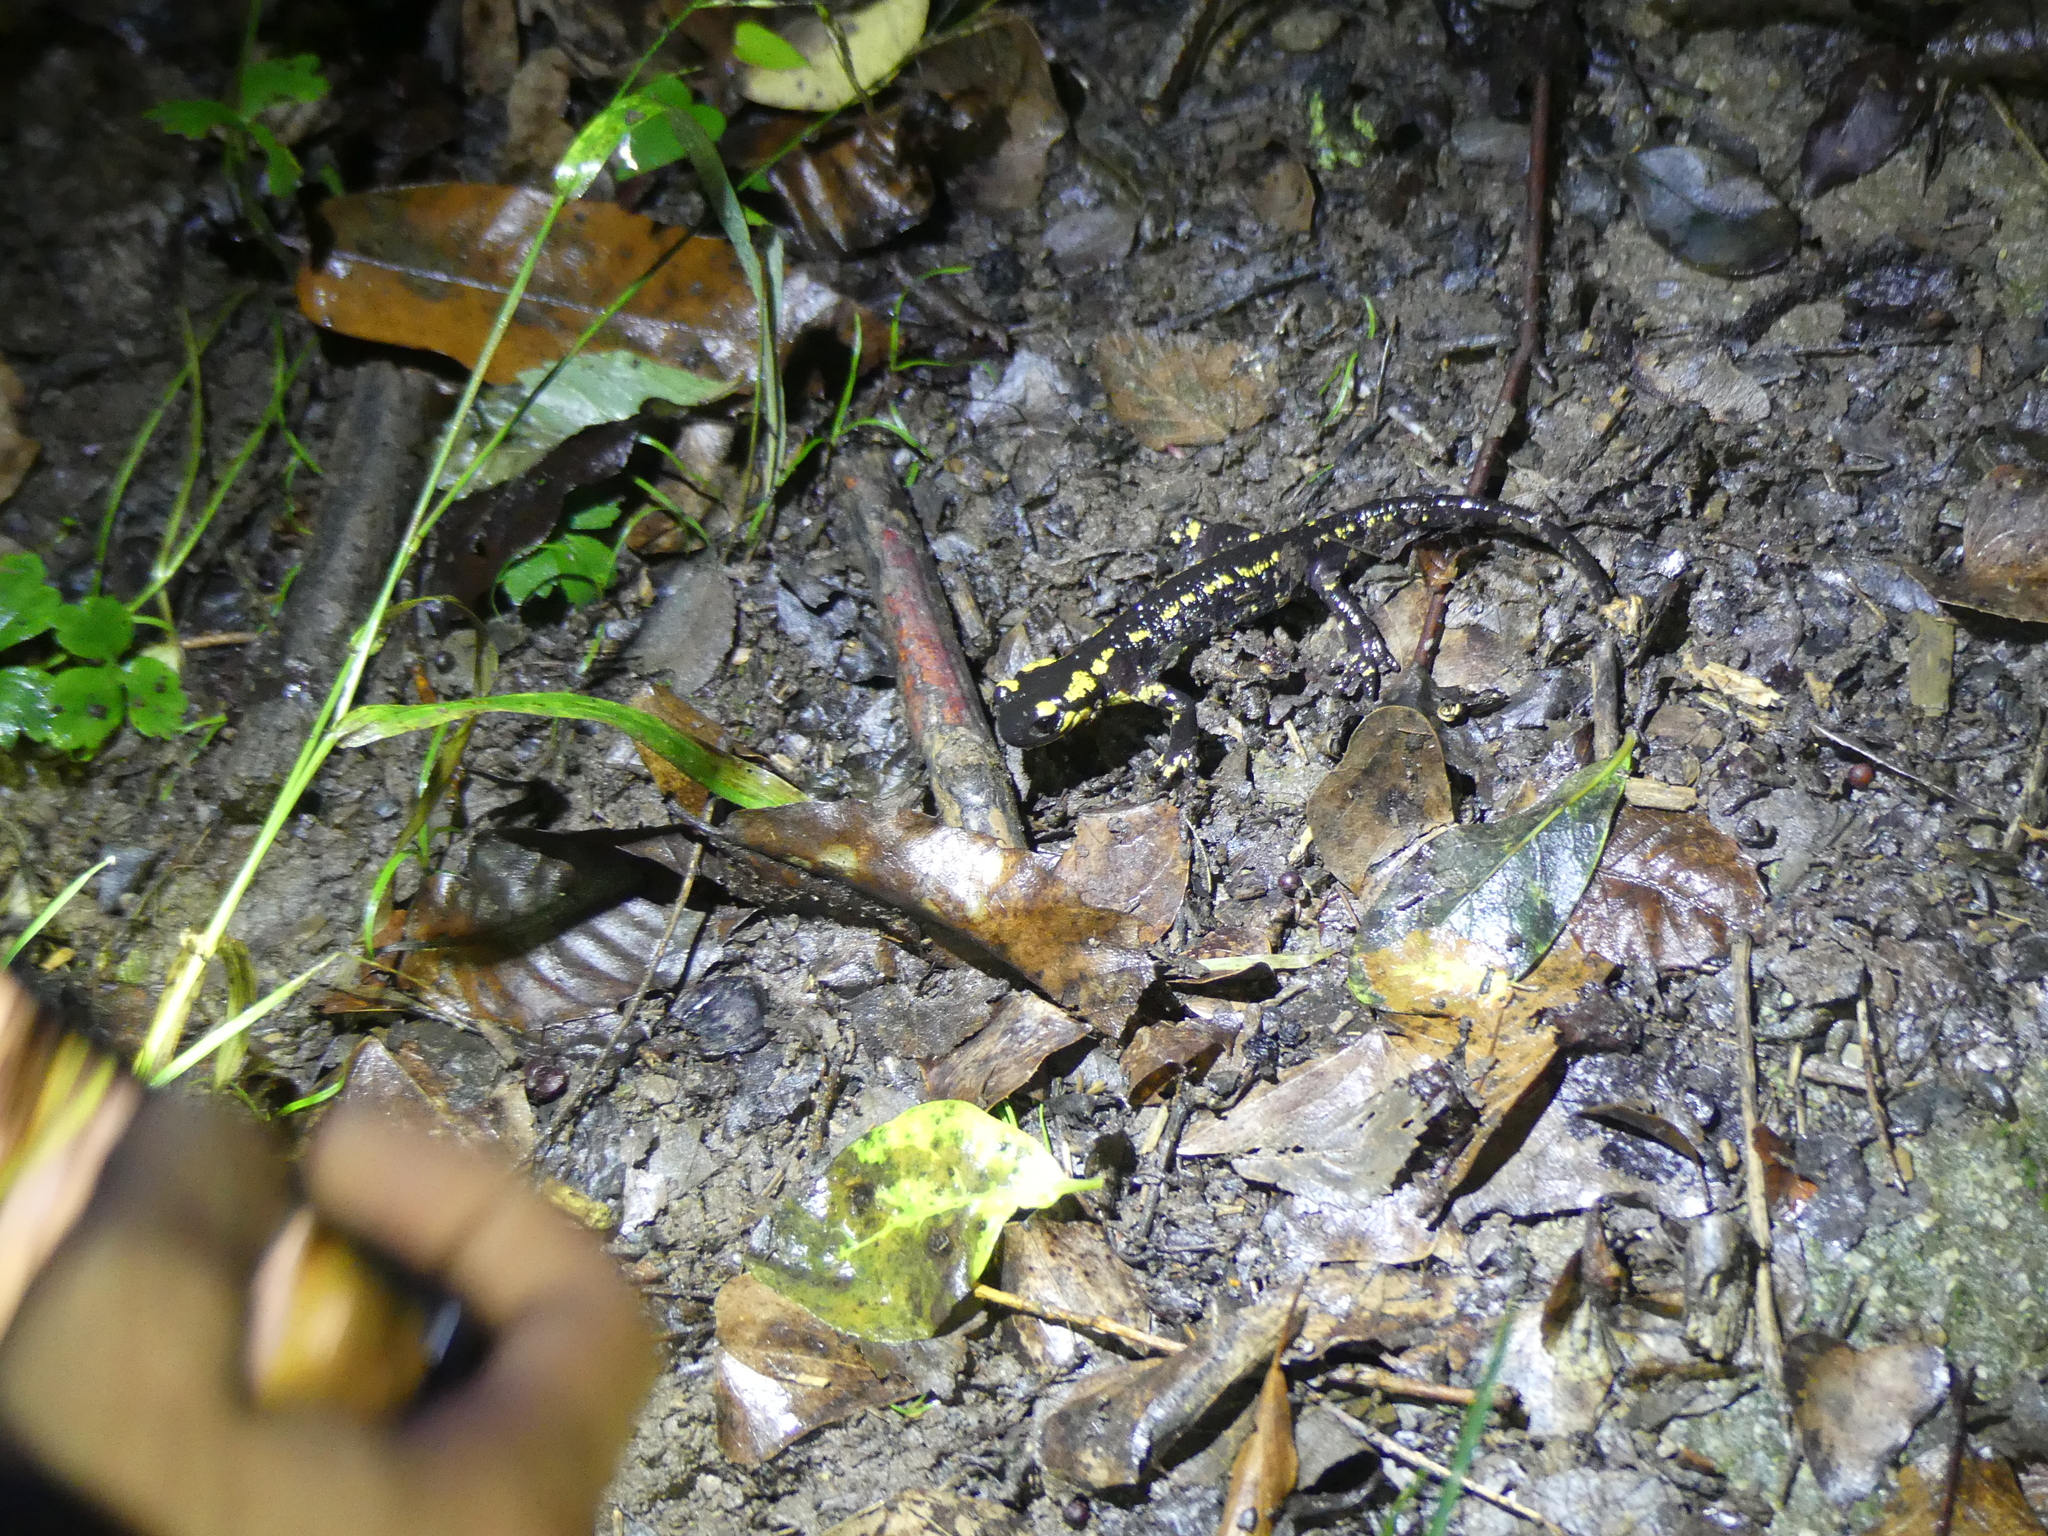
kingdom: Animalia
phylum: Chordata
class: Amphibia
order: Caudata
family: Salamandridae
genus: Salamandra
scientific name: Salamandra salamandra
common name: Fire salamander
